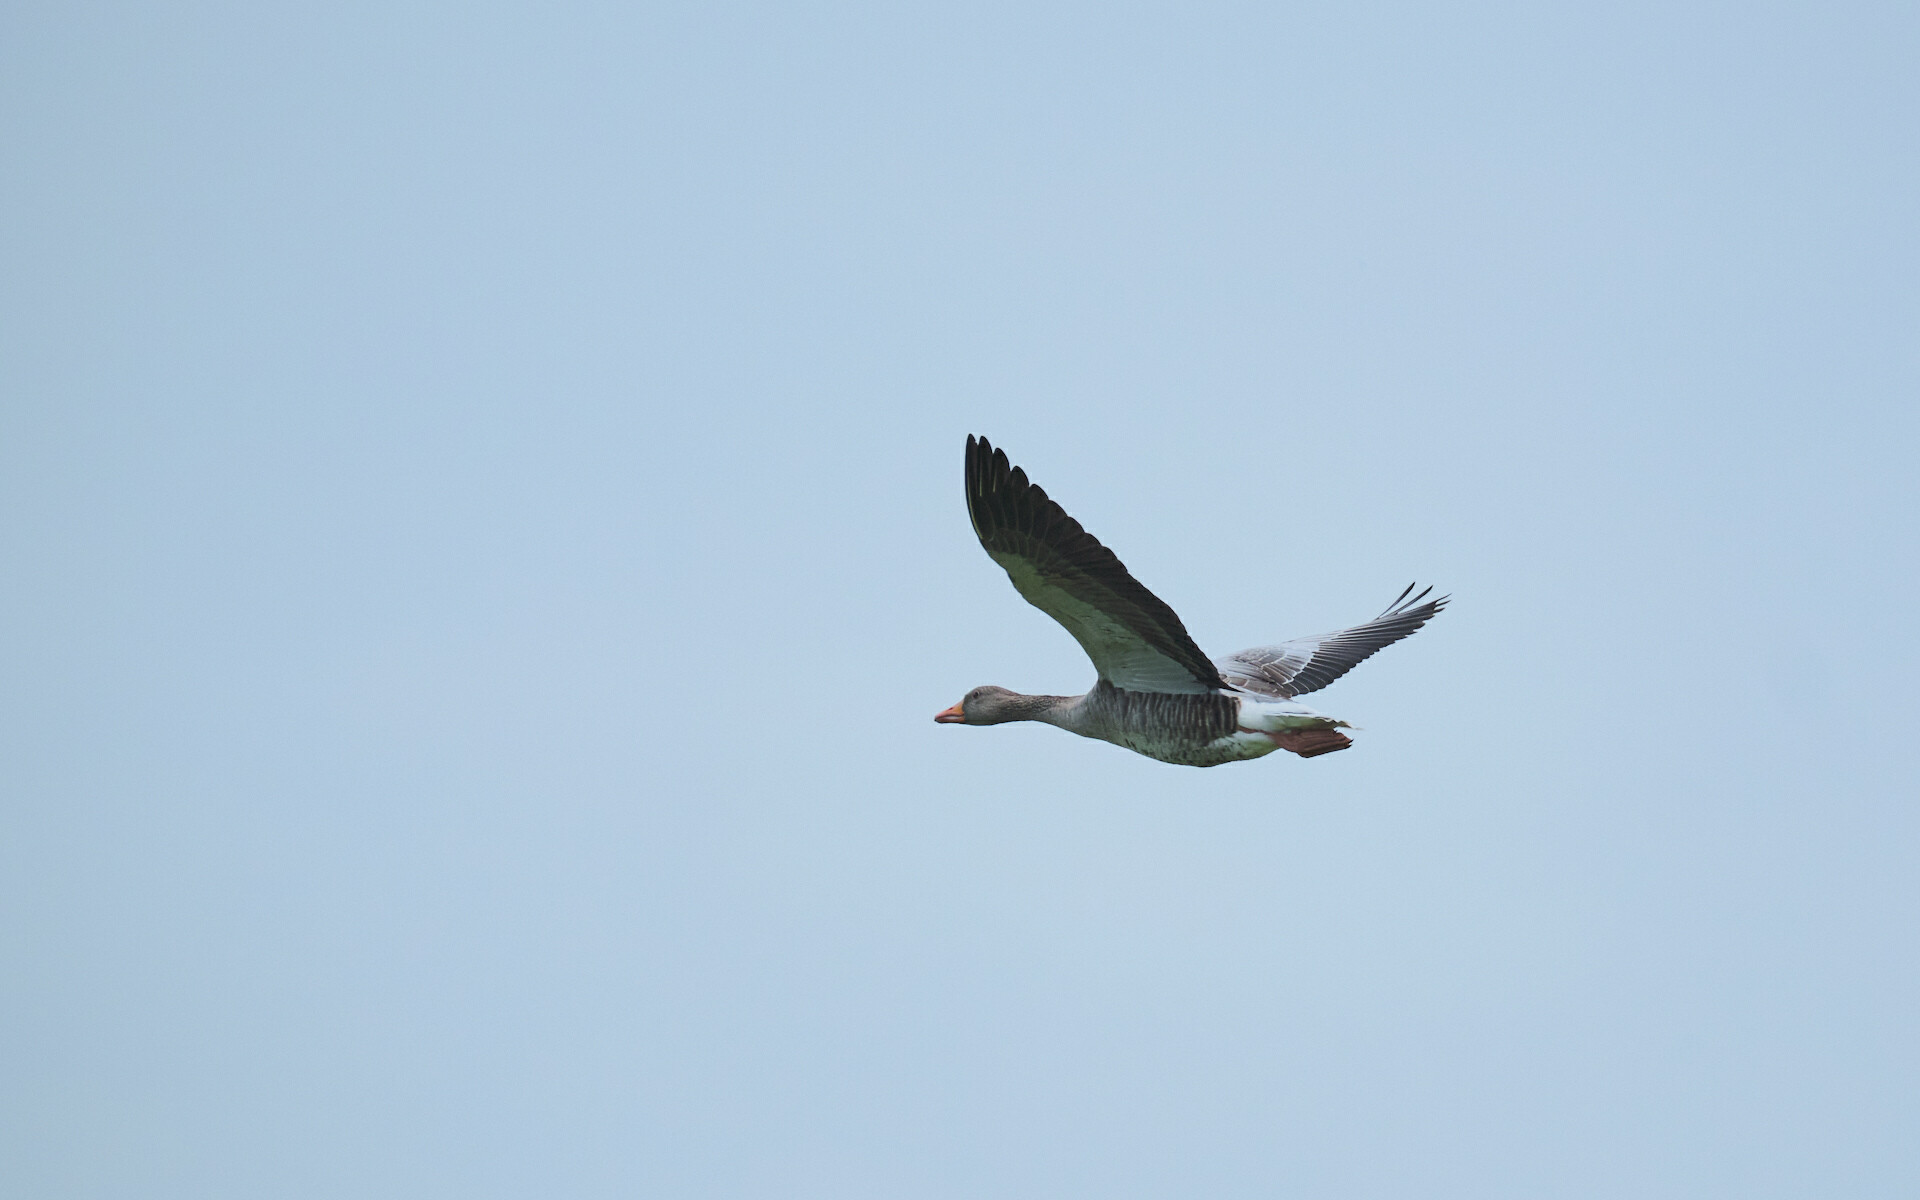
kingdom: Animalia
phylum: Chordata
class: Aves
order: Anseriformes
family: Anatidae
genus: Anser
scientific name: Anser anser
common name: Greylag goose
